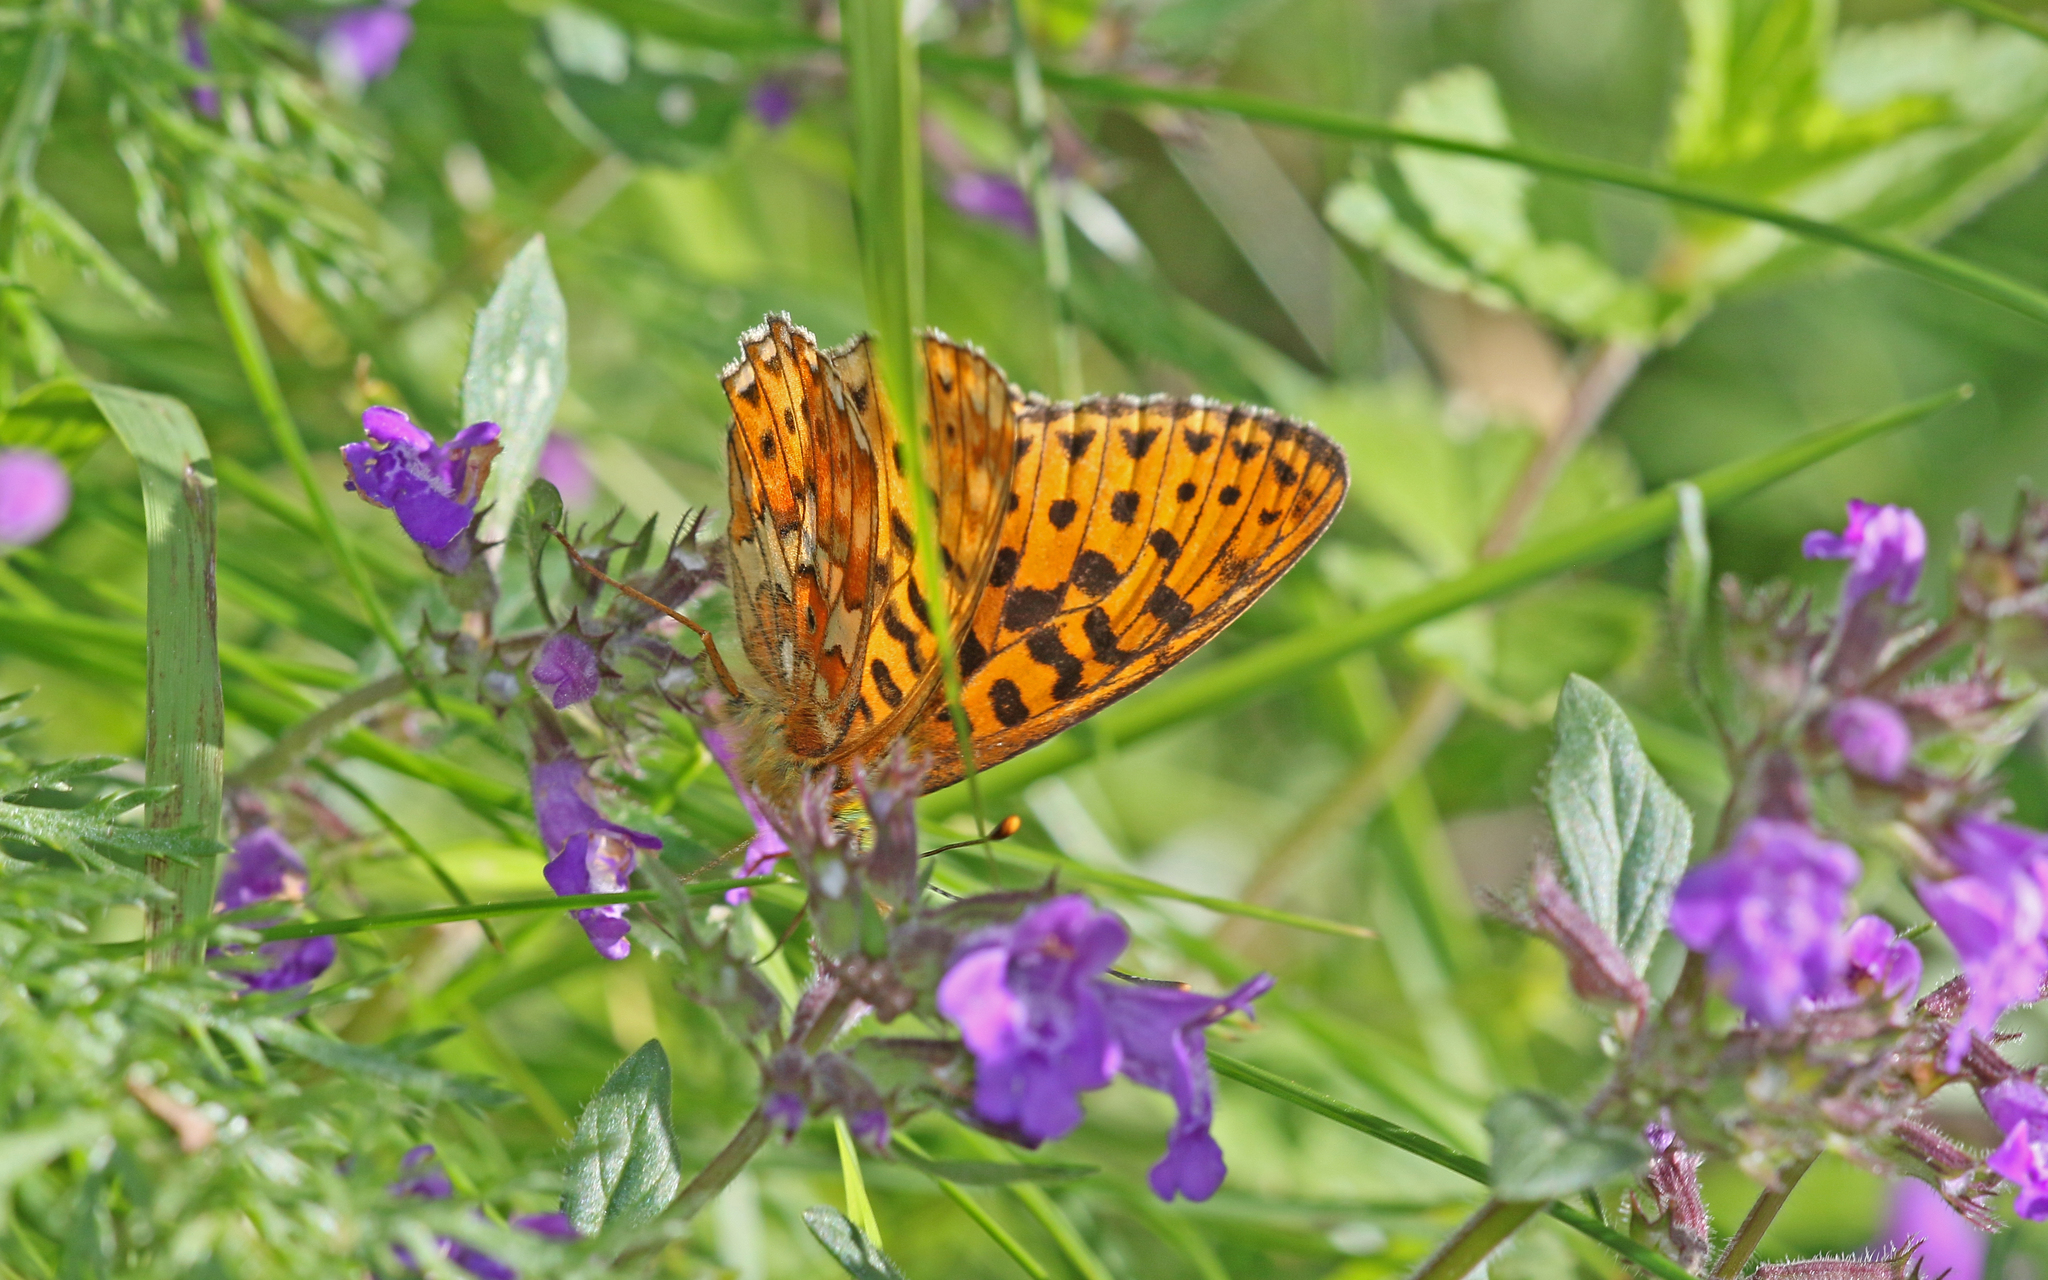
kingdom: Animalia
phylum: Arthropoda
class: Insecta
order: Lepidoptera
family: Nymphalidae
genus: Clossiana
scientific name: Clossiana euphrosyne
